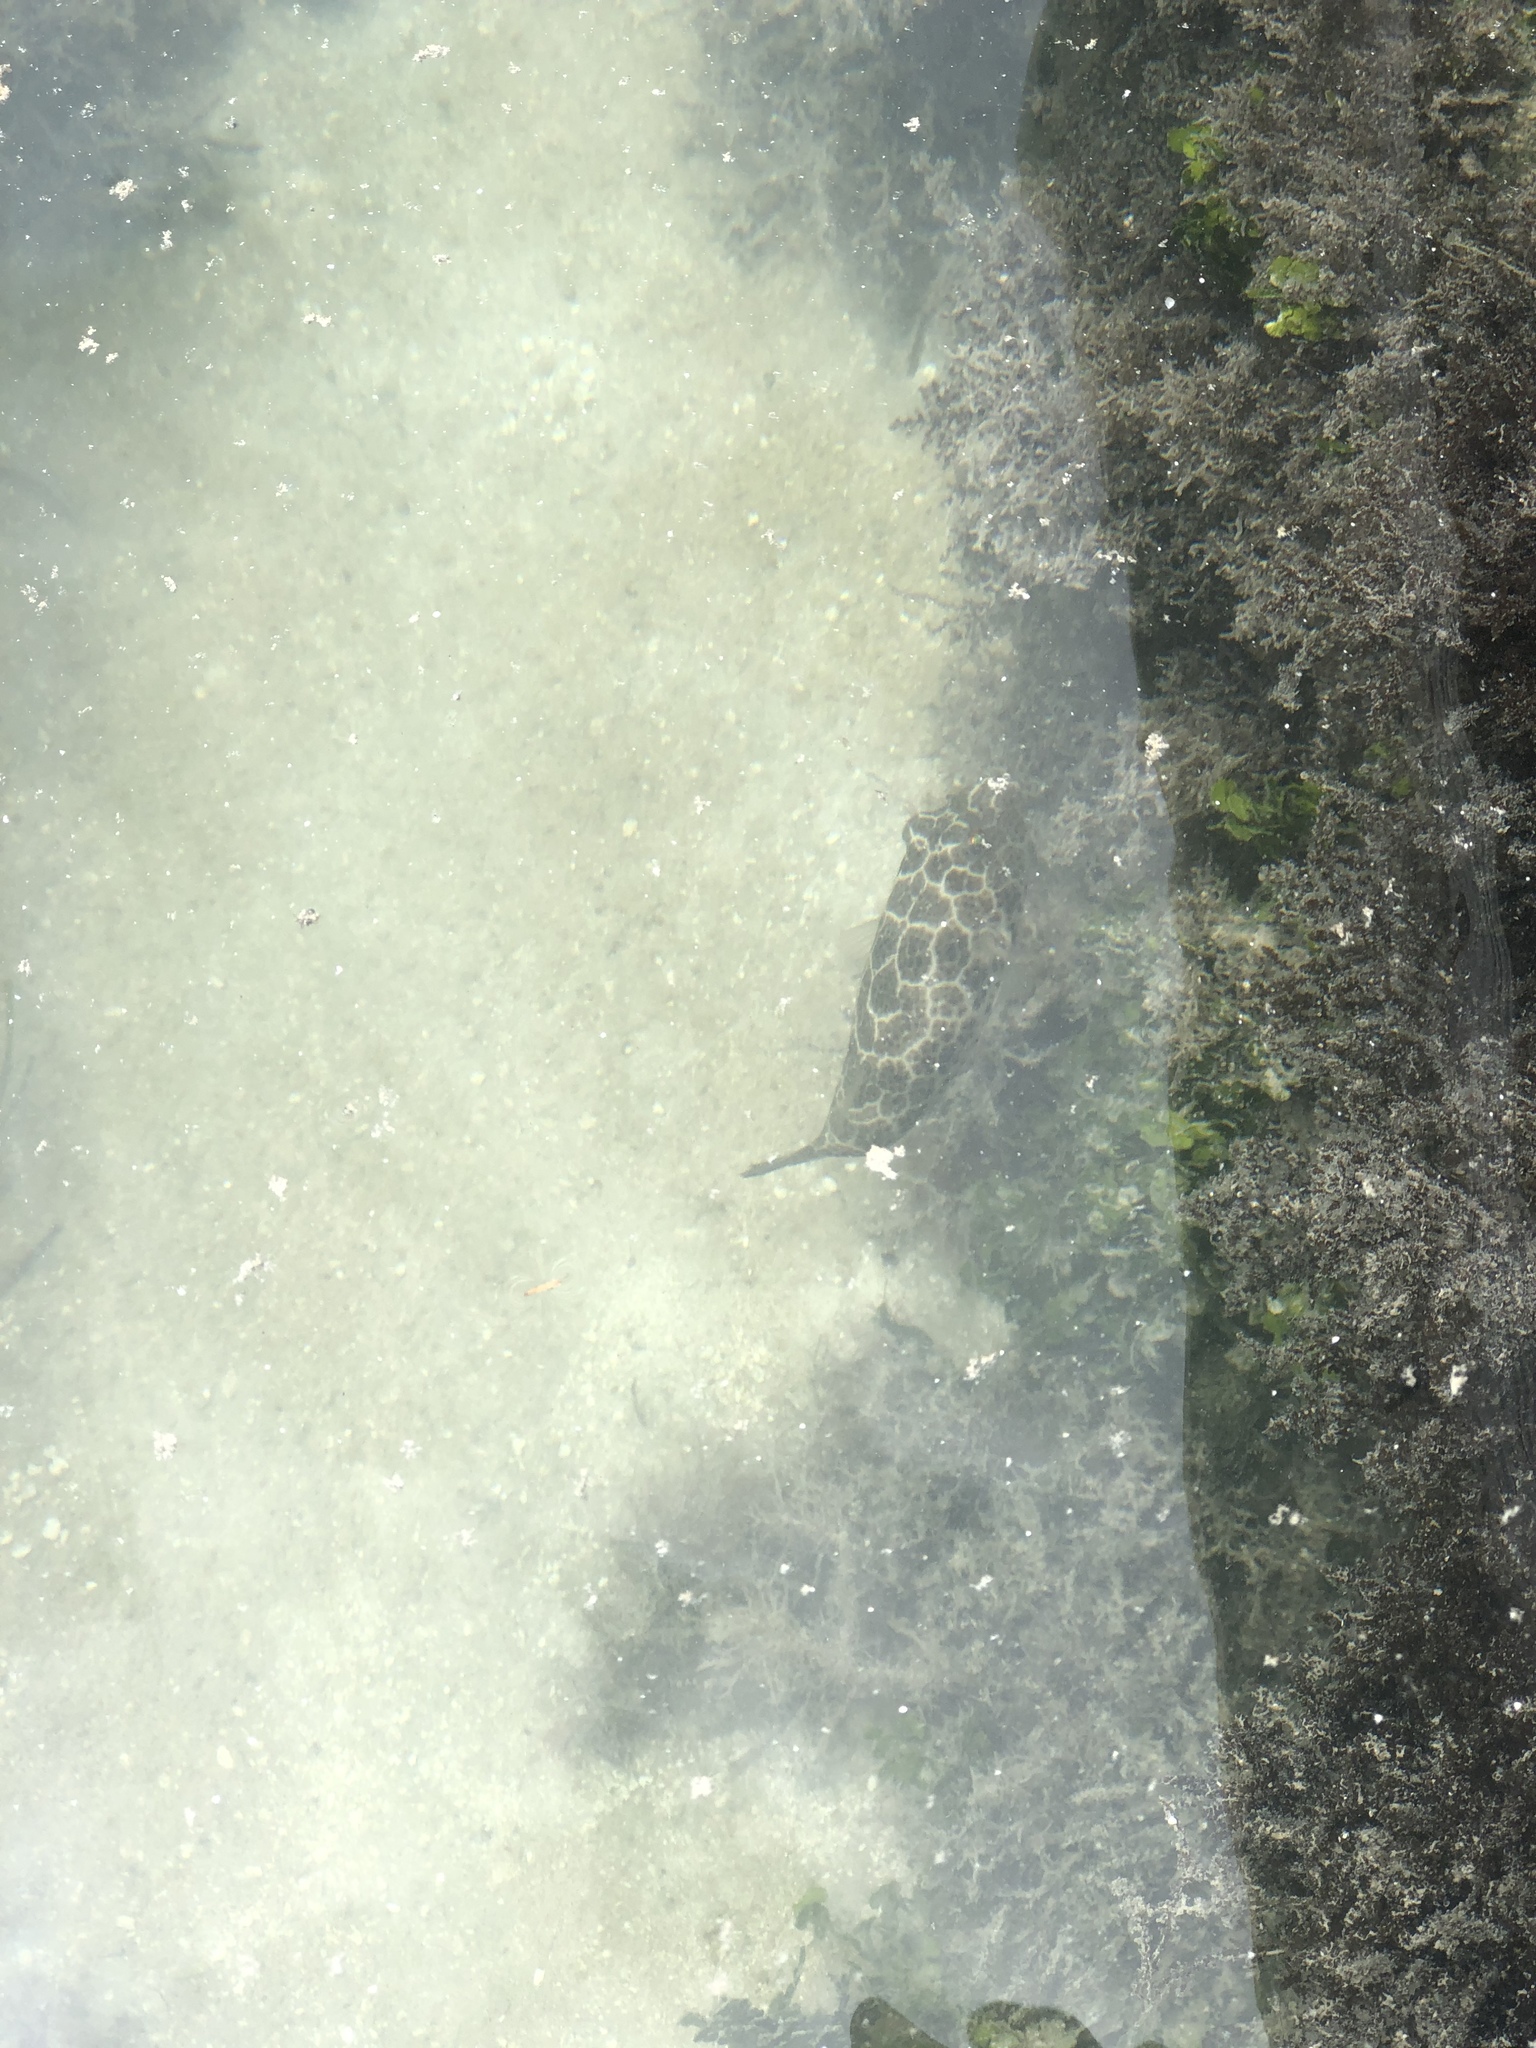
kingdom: Animalia
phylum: Chordata
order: Tetraodontiformes
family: Tetraodontidae
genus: Sphoeroides
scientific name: Sphoeroides testudineus
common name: Checkered puffer
